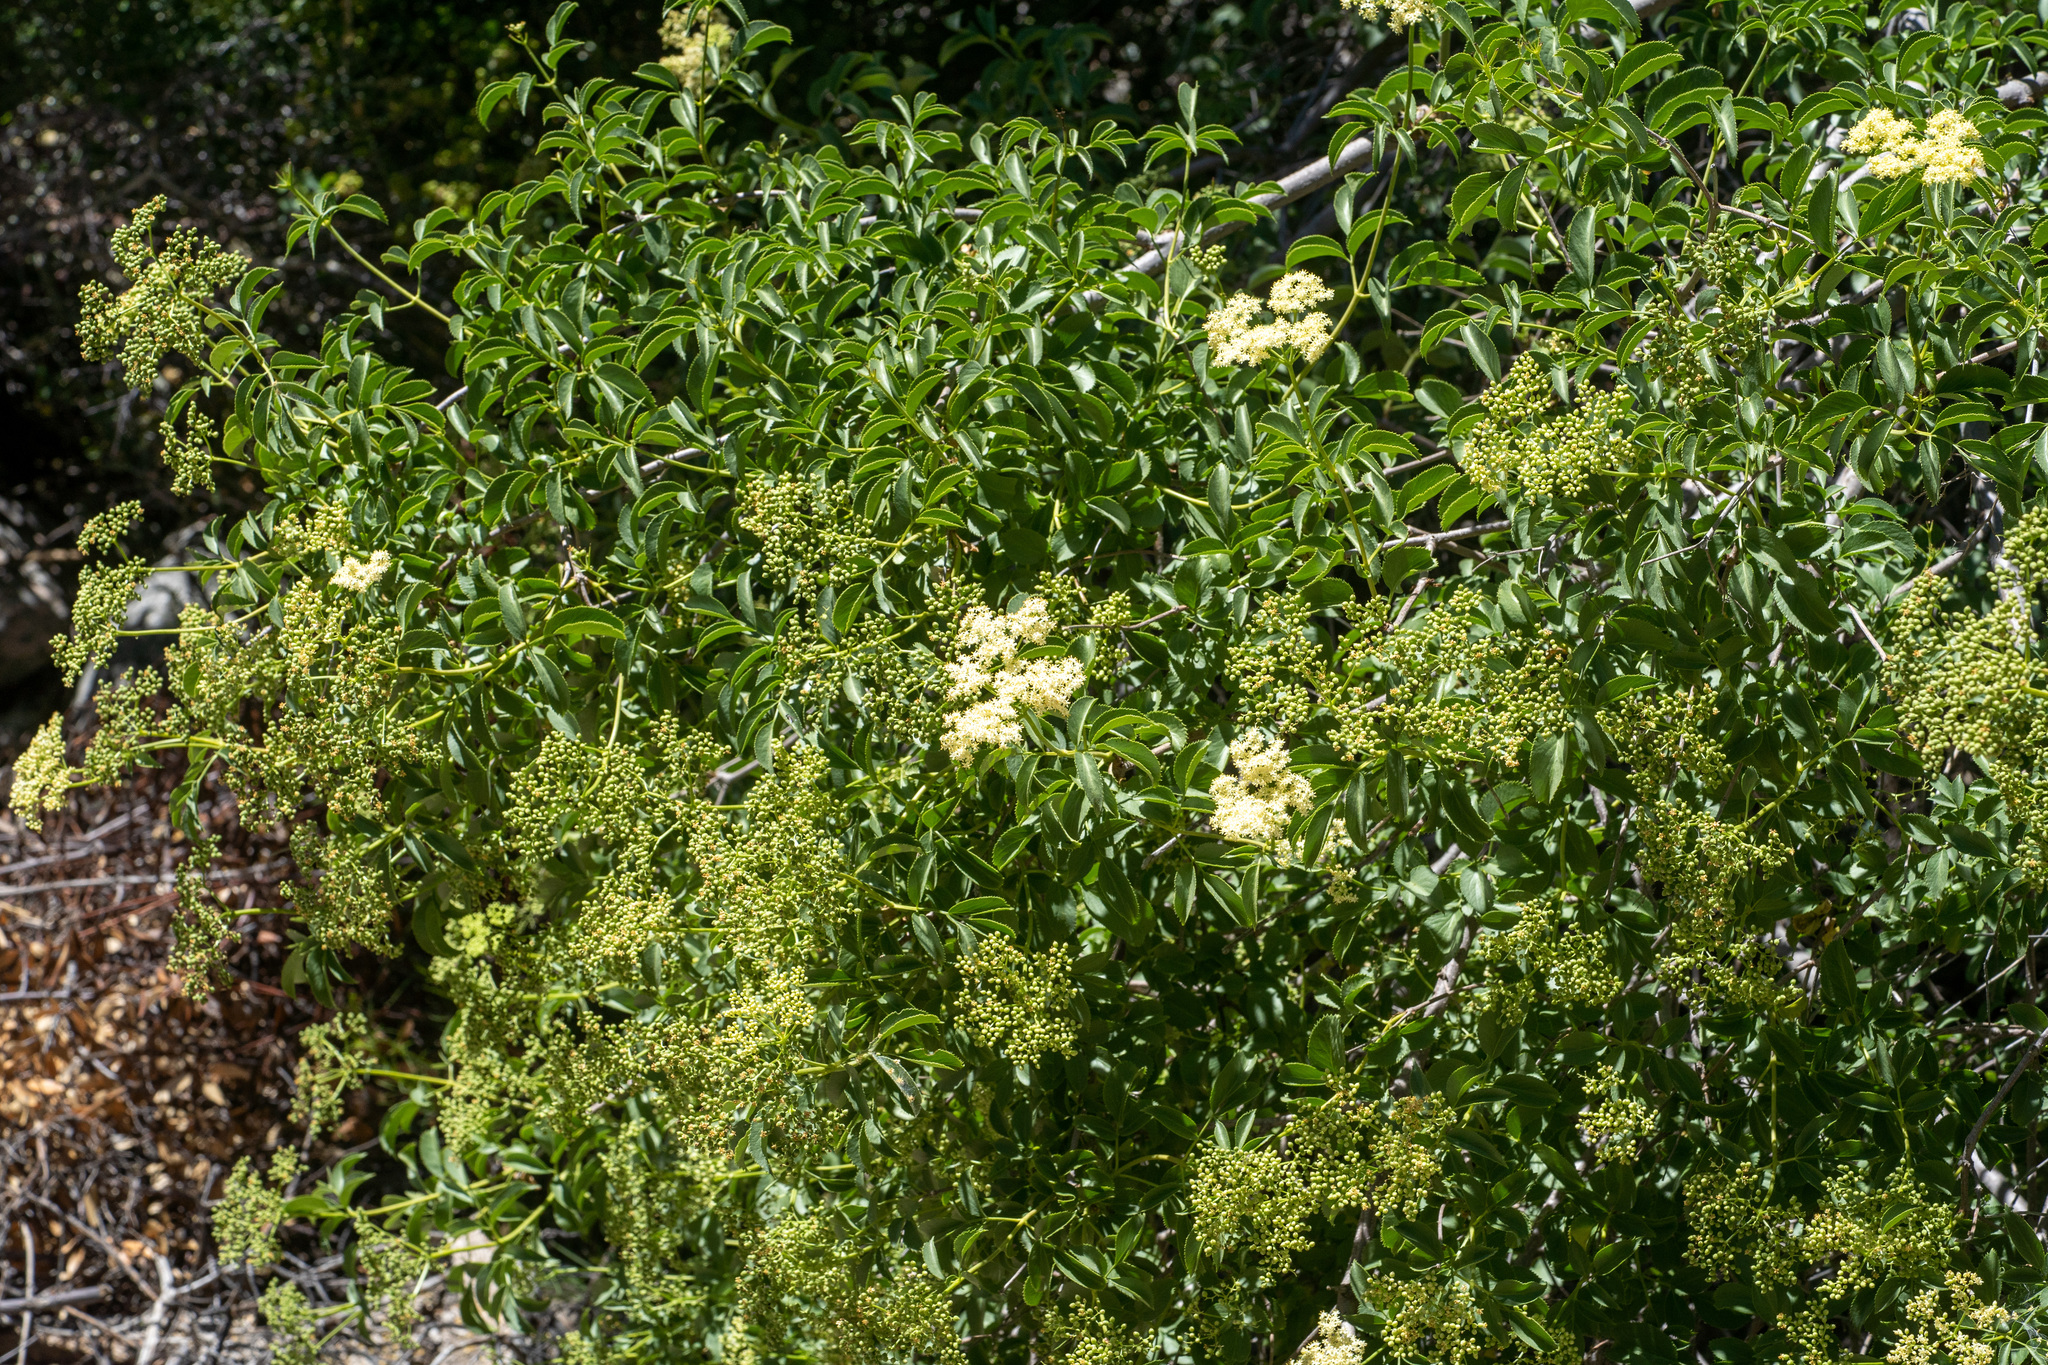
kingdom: Plantae
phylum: Tracheophyta
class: Magnoliopsida
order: Dipsacales
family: Viburnaceae
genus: Sambucus
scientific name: Sambucus cerulea
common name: Blue elder
